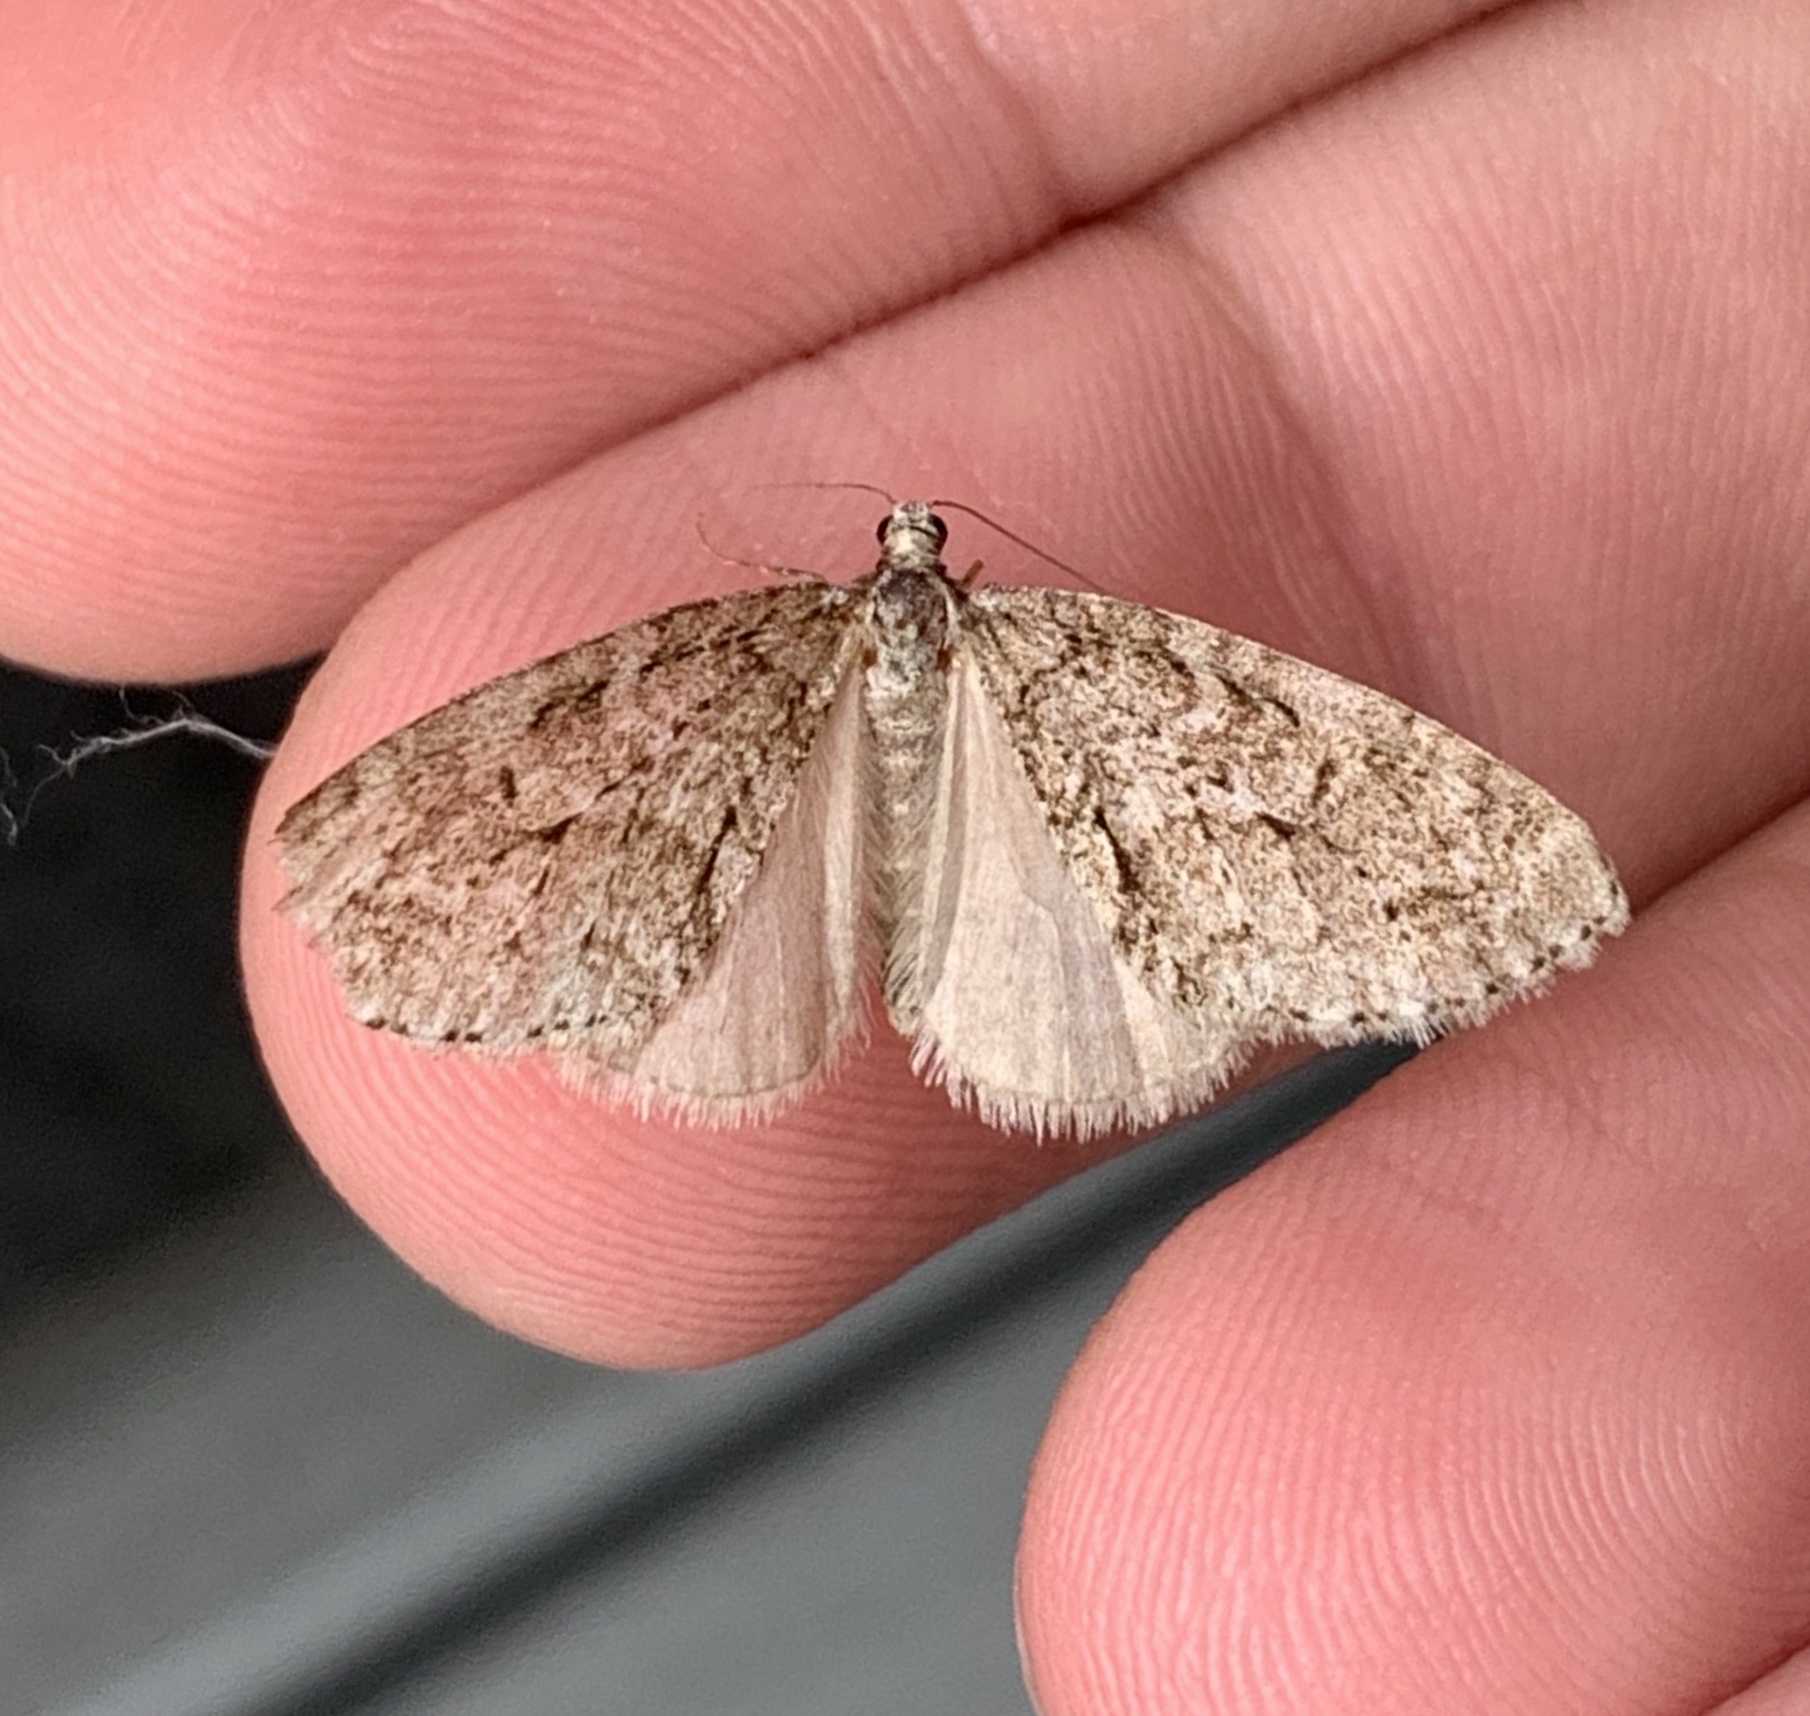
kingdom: Animalia
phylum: Arthropoda
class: Insecta
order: Lepidoptera
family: Geometridae
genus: Cladara
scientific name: Cladara limitaria
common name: Mottled gray carpet
